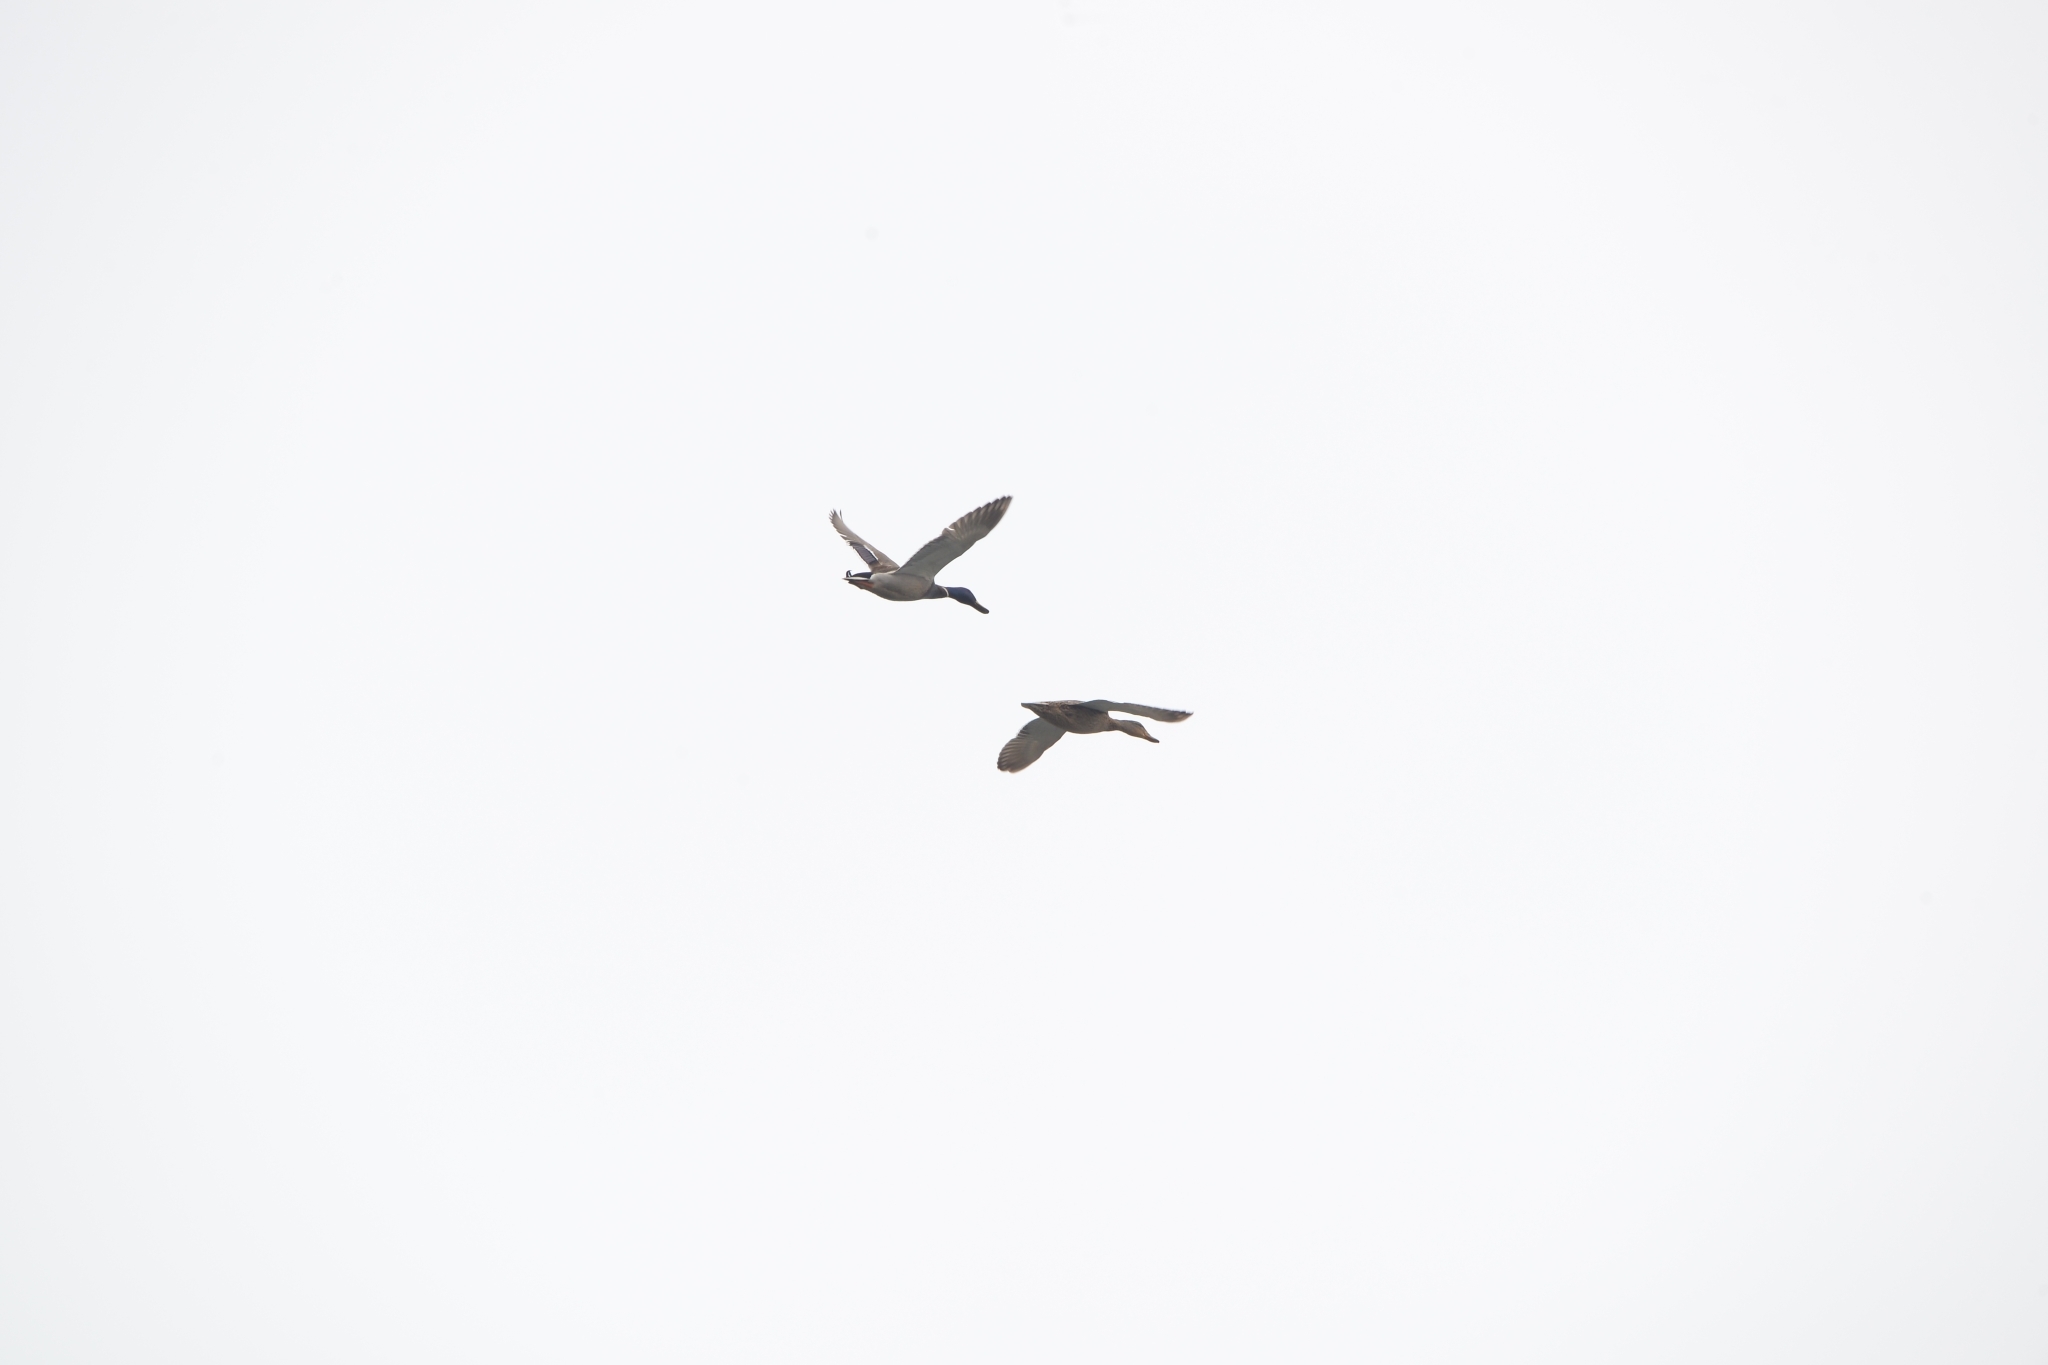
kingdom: Animalia
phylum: Chordata
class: Aves
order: Anseriformes
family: Anatidae
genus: Anas
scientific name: Anas platyrhynchos
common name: Mallard
